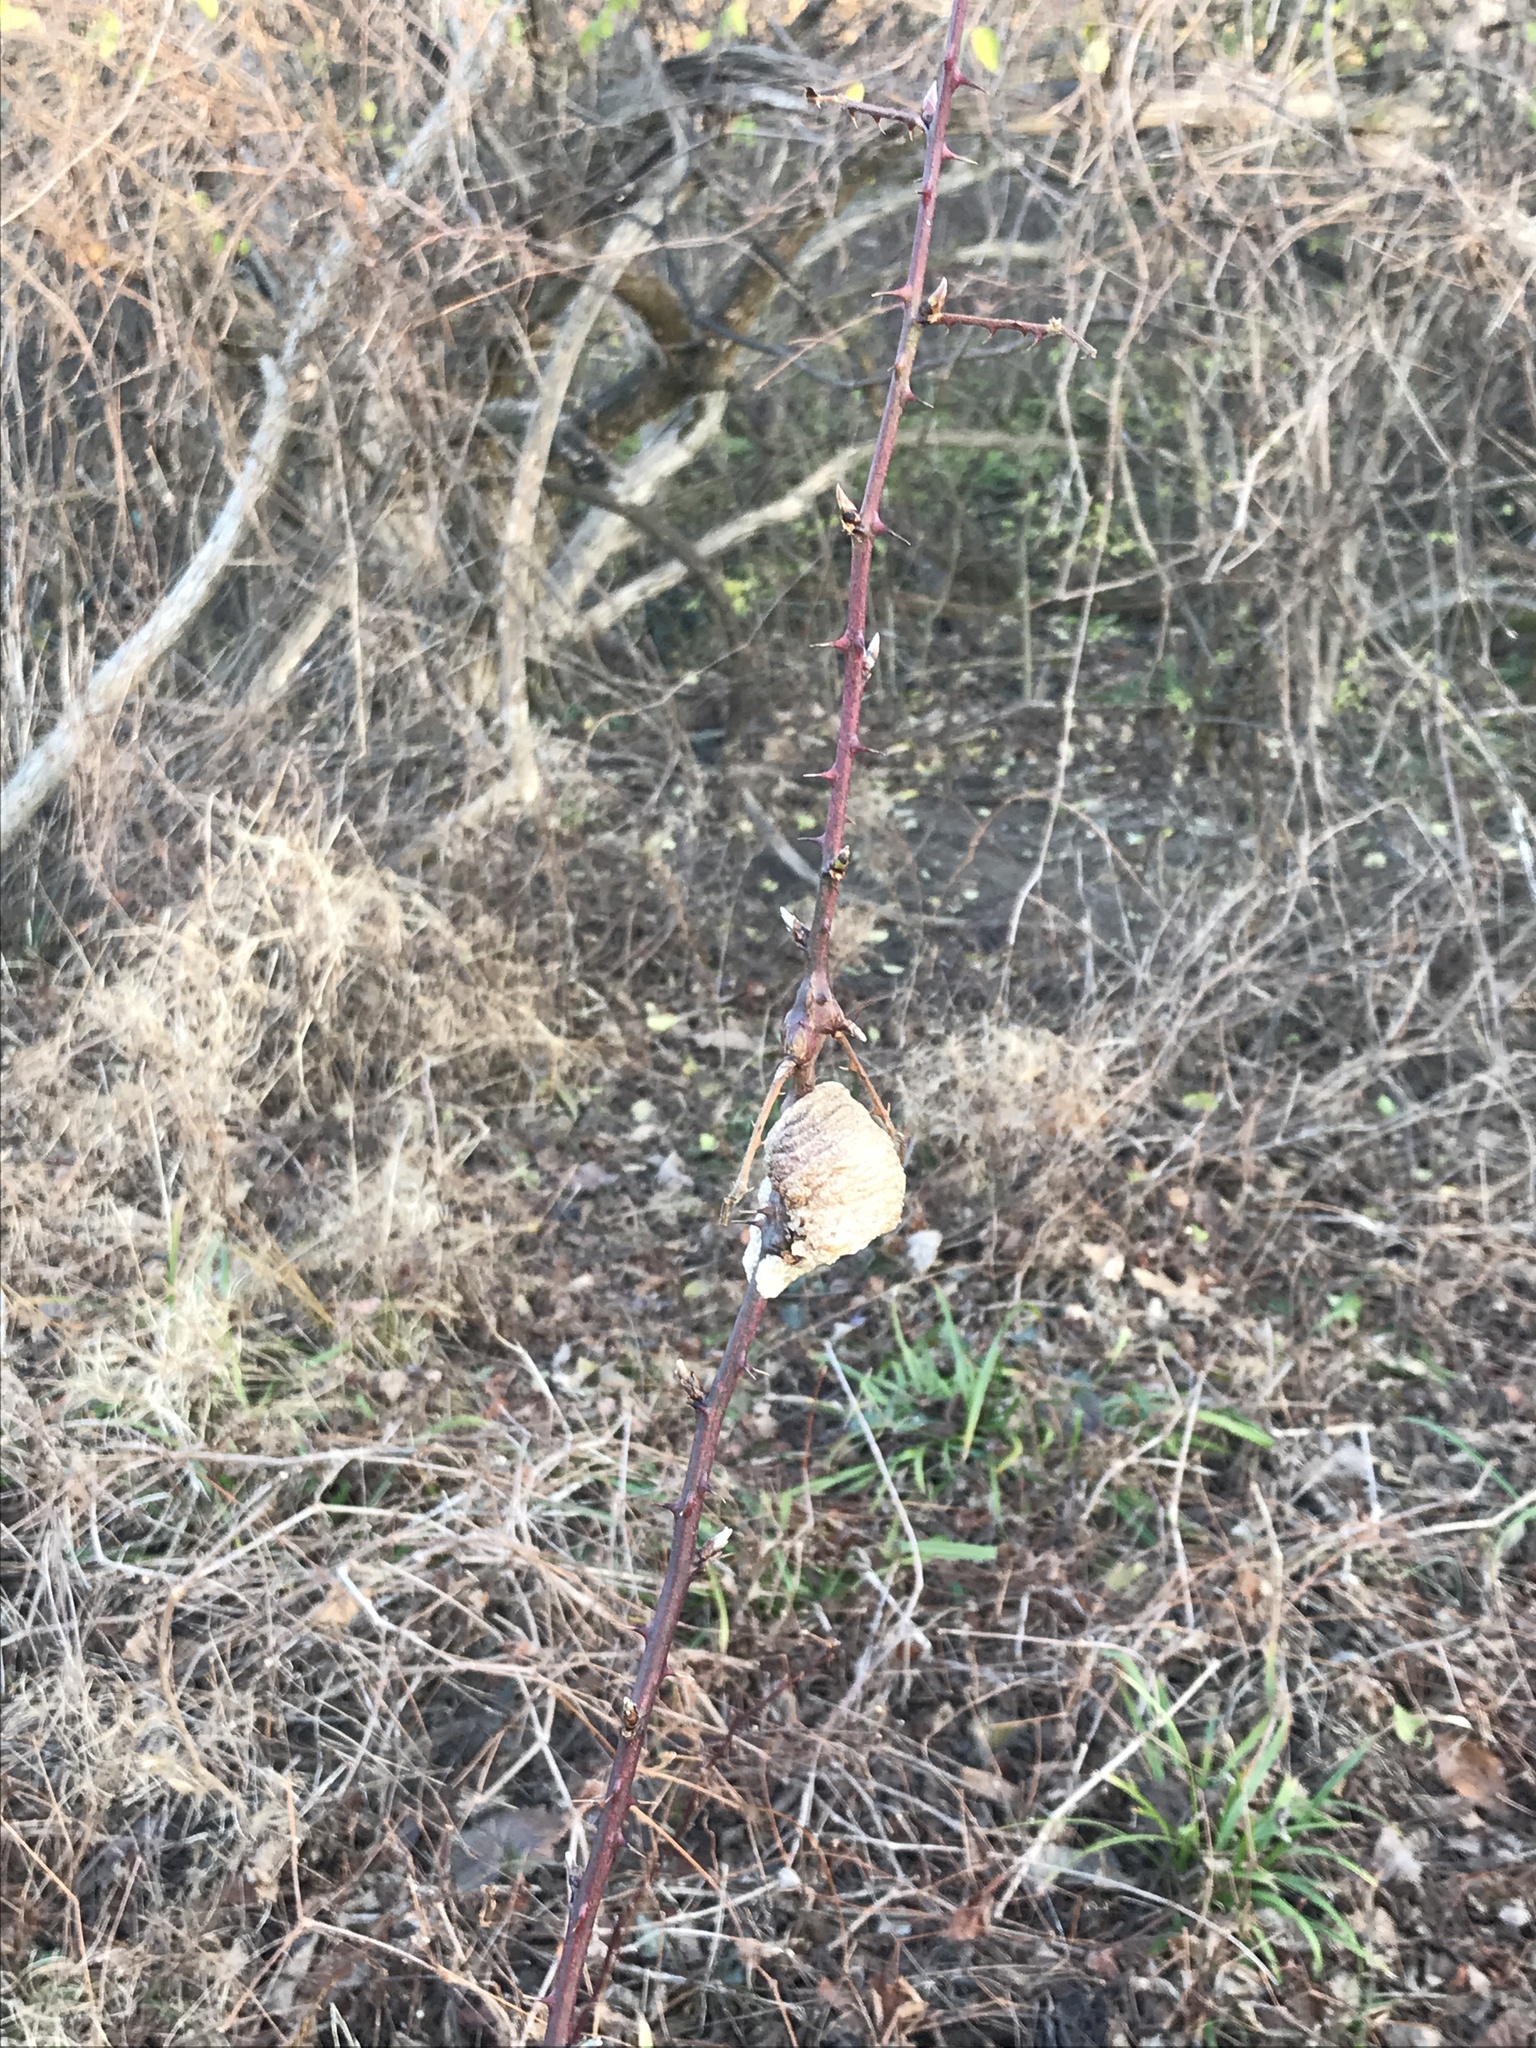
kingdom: Animalia
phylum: Arthropoda
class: Insecta
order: Mantodea
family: Mantidae
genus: Tenodera
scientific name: Tenodera sinensis
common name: Chinese mantis
